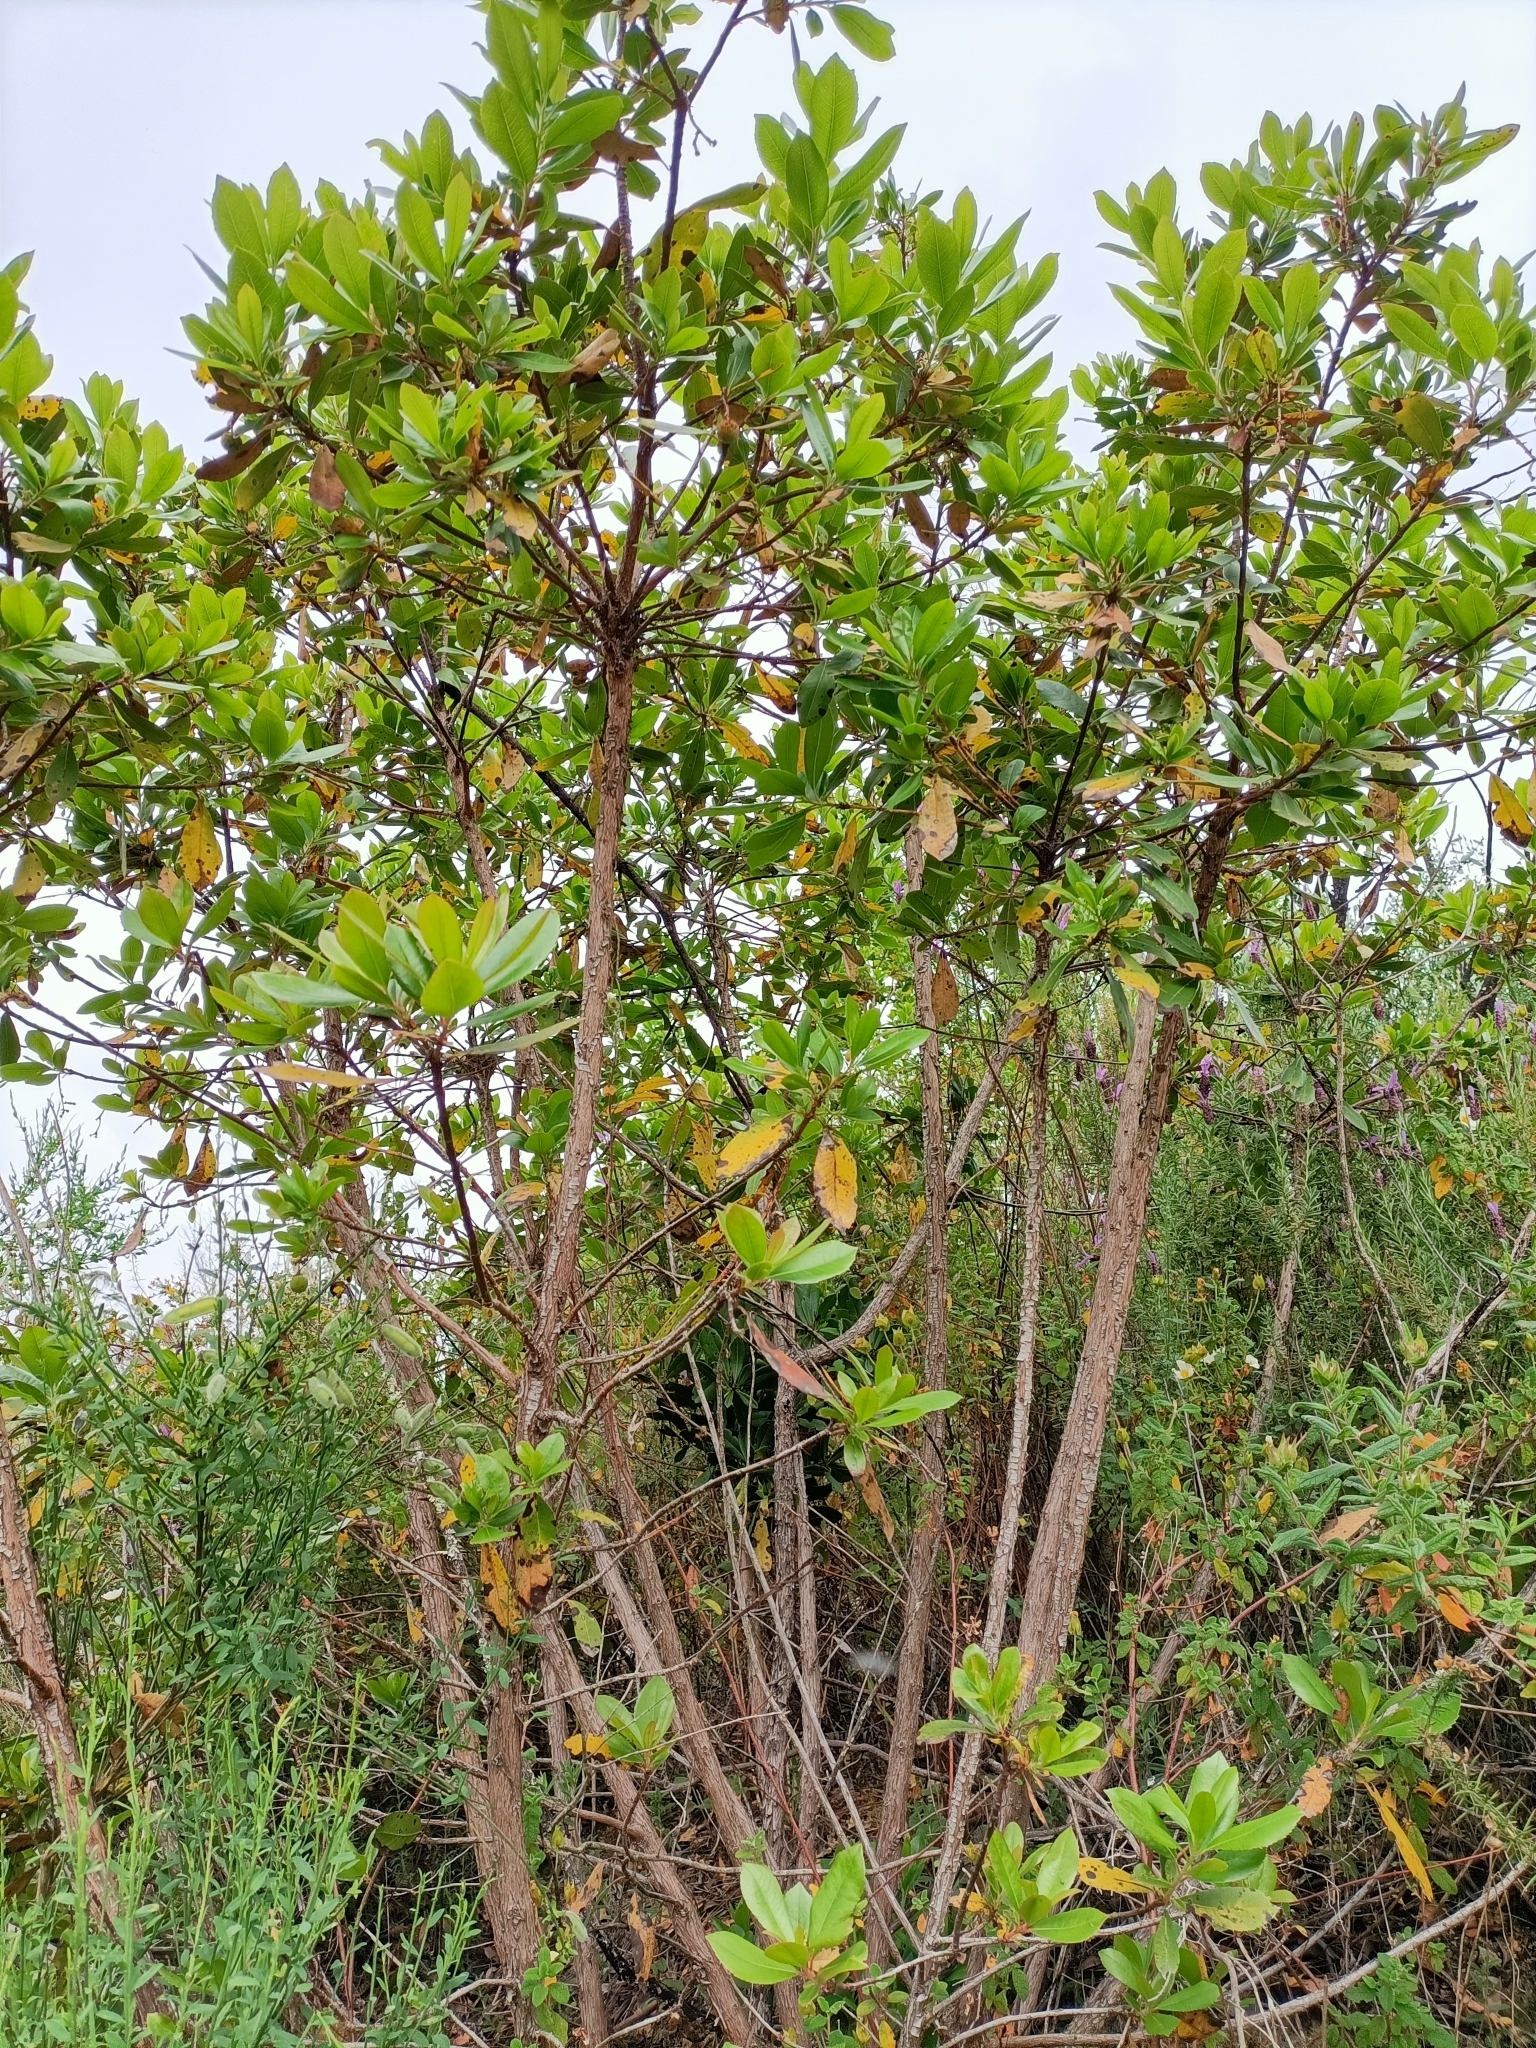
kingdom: Plantae
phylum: Tracheophyta
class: Magnoliopsida
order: Ericales
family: Ericaceae
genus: Arbutus
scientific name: Arbutus unedo
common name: Strawberry-tree
